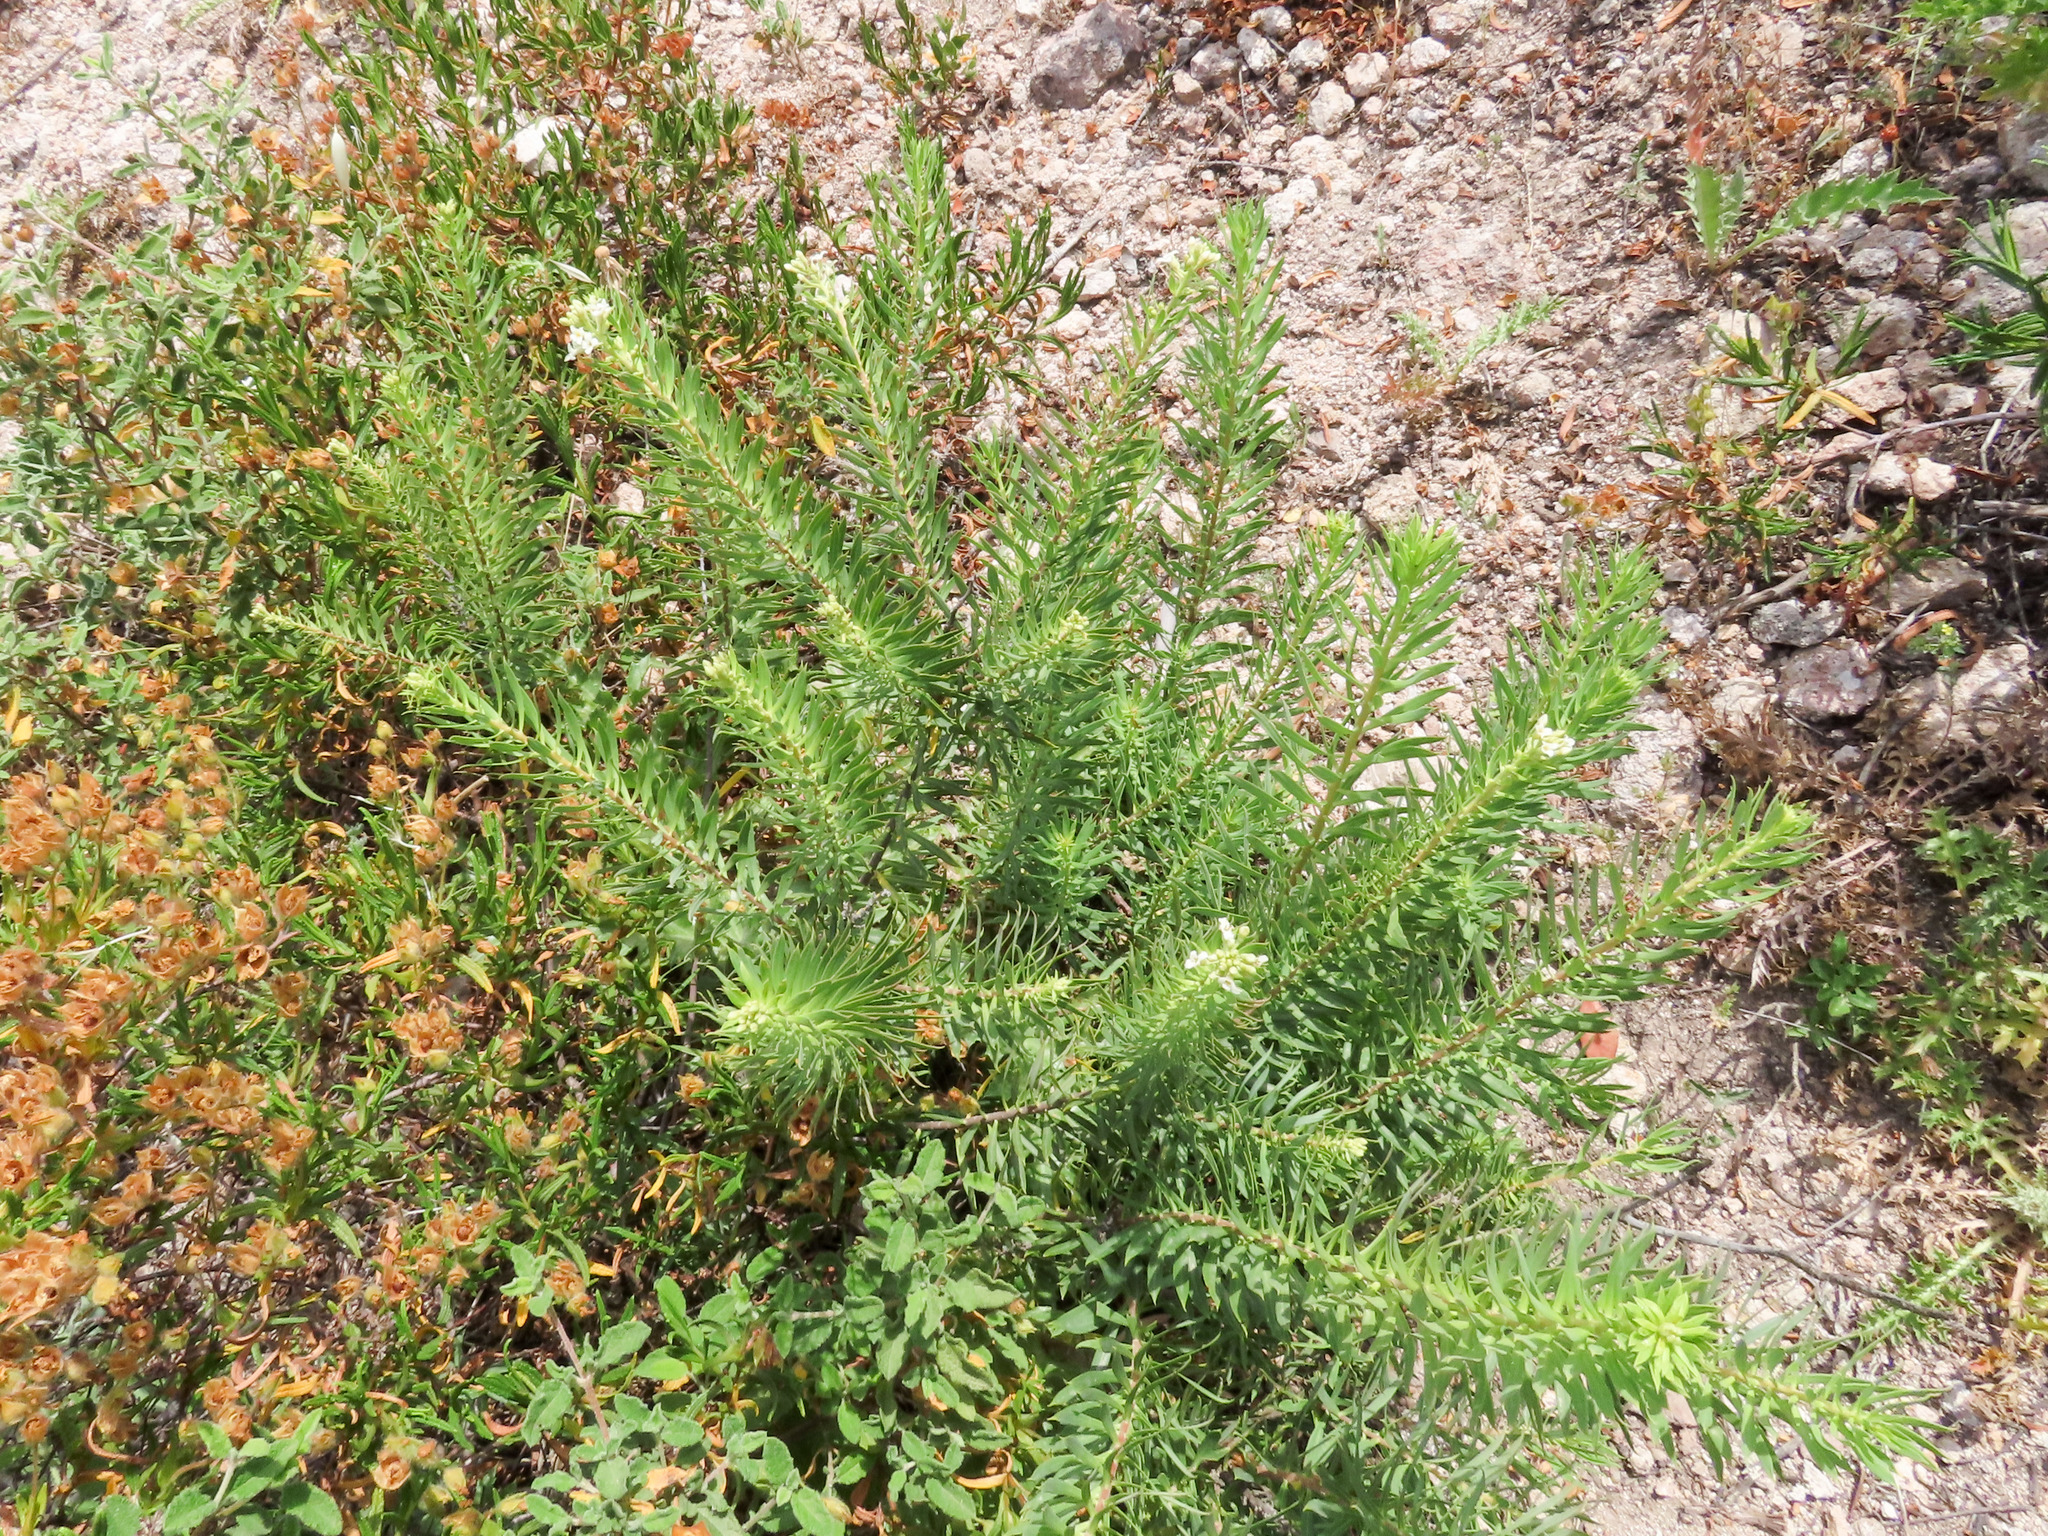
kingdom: Plantae
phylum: Tracheophyta
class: Magnoliopsida
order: Malvales
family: Thymelaeaceae
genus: Daphne
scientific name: Daphne gnidium
